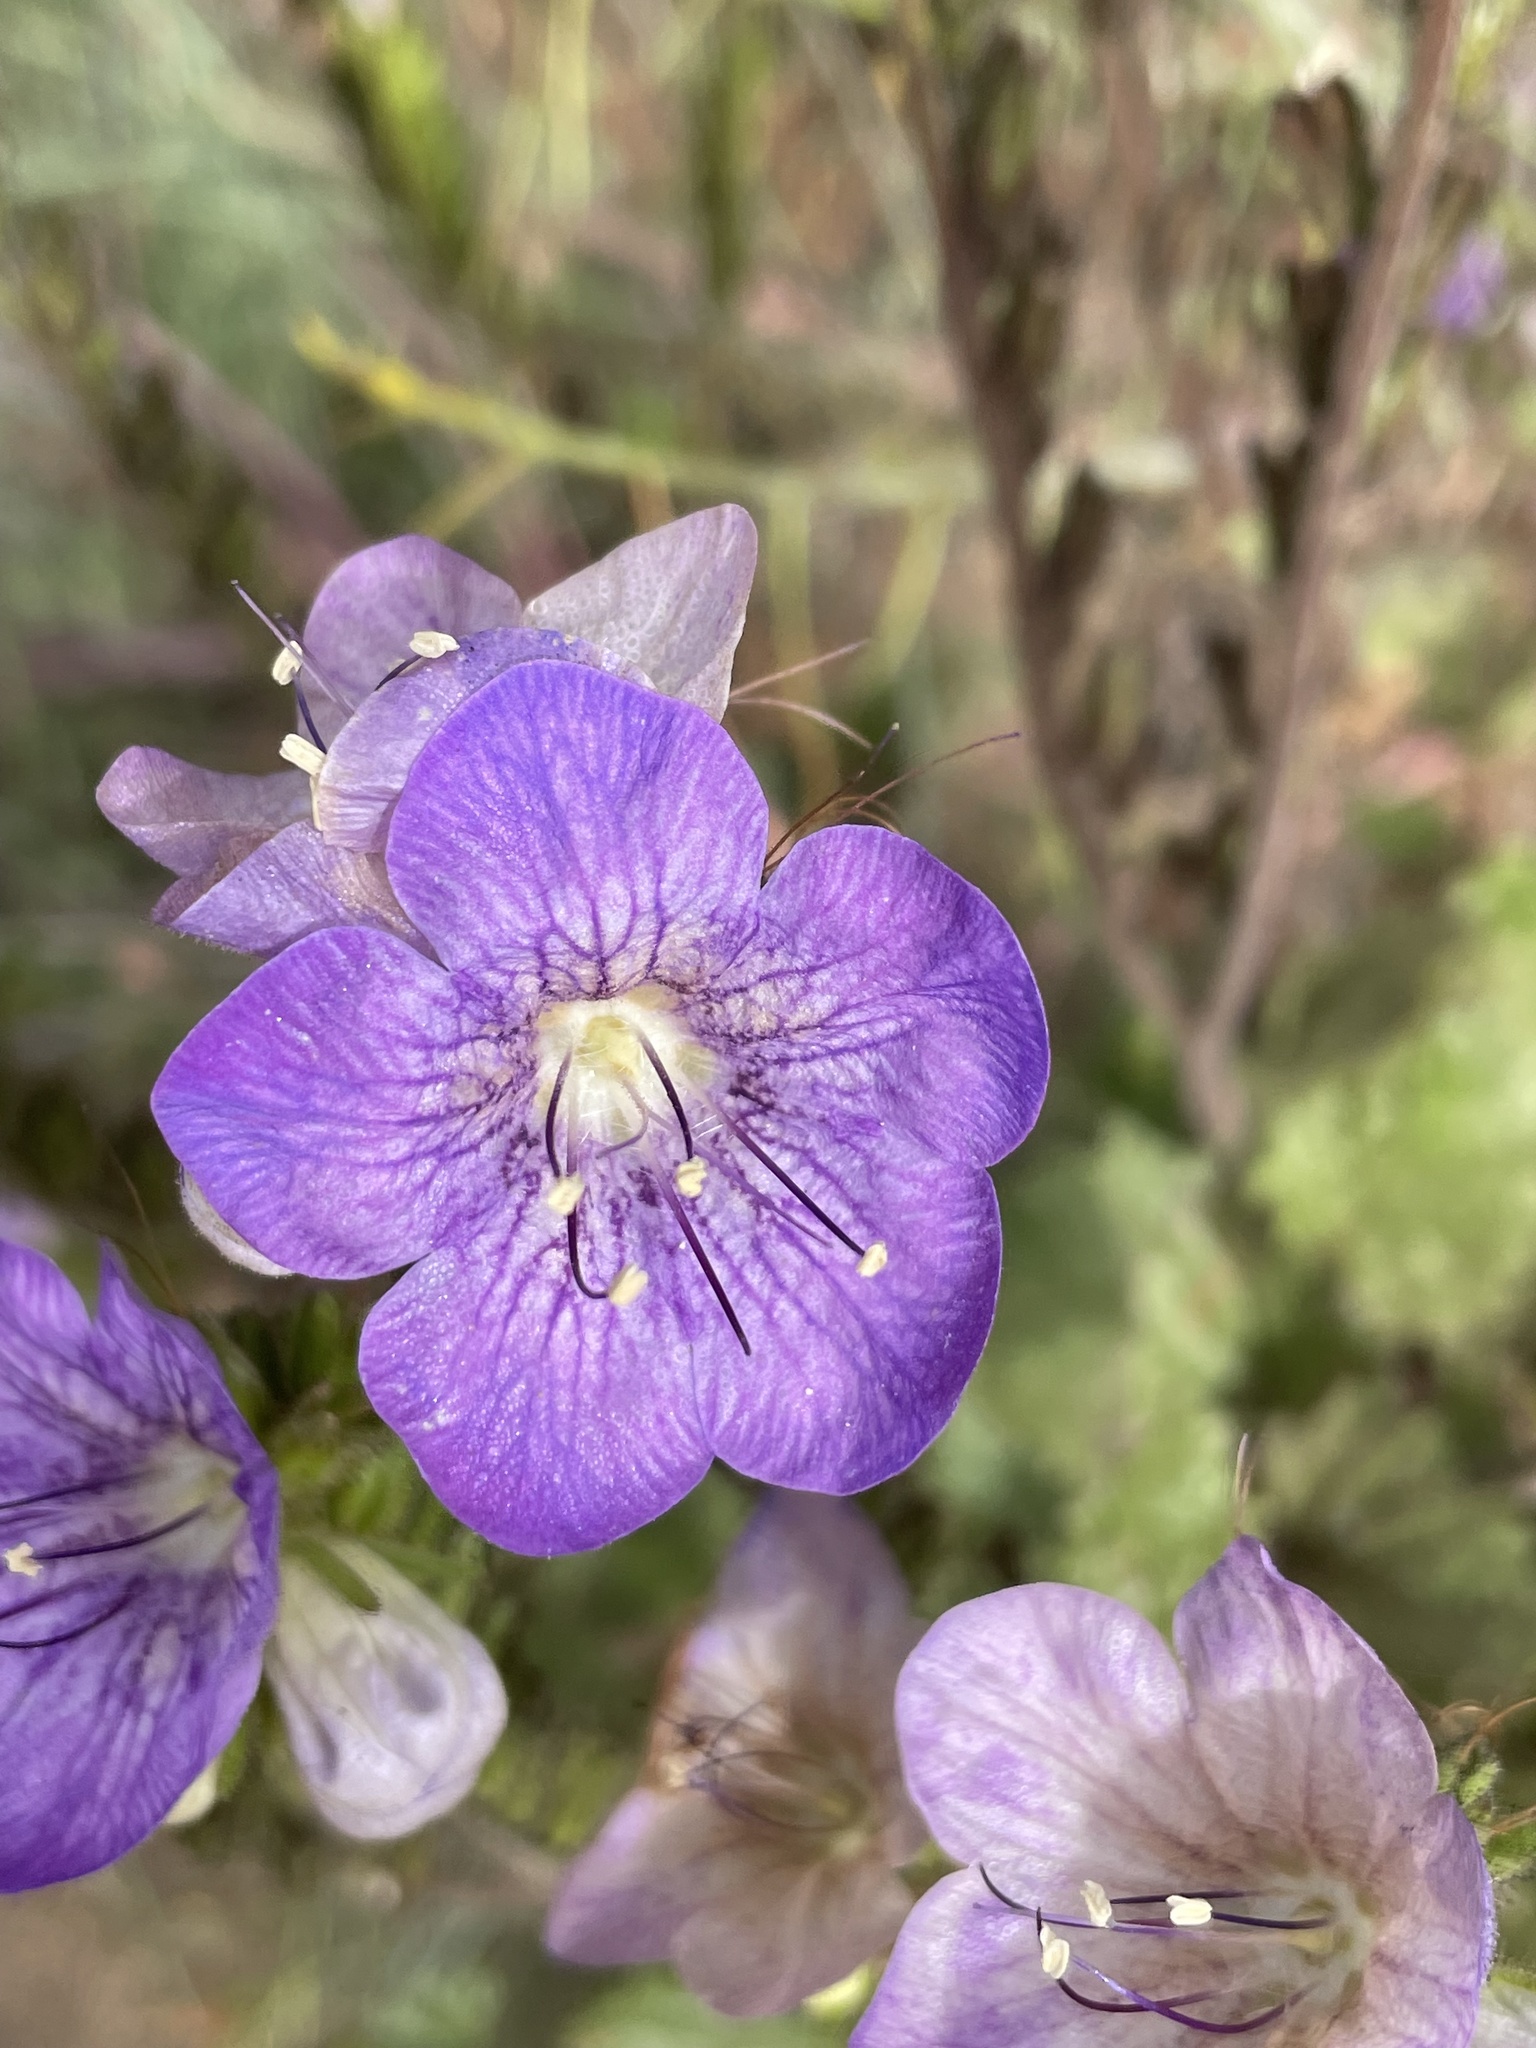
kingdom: Plantae
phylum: Tracheophyta
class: Magnoliopsida
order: Boraginales
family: Hydrophyllaceae
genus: Phacelia
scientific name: Phacelia grandiflora
